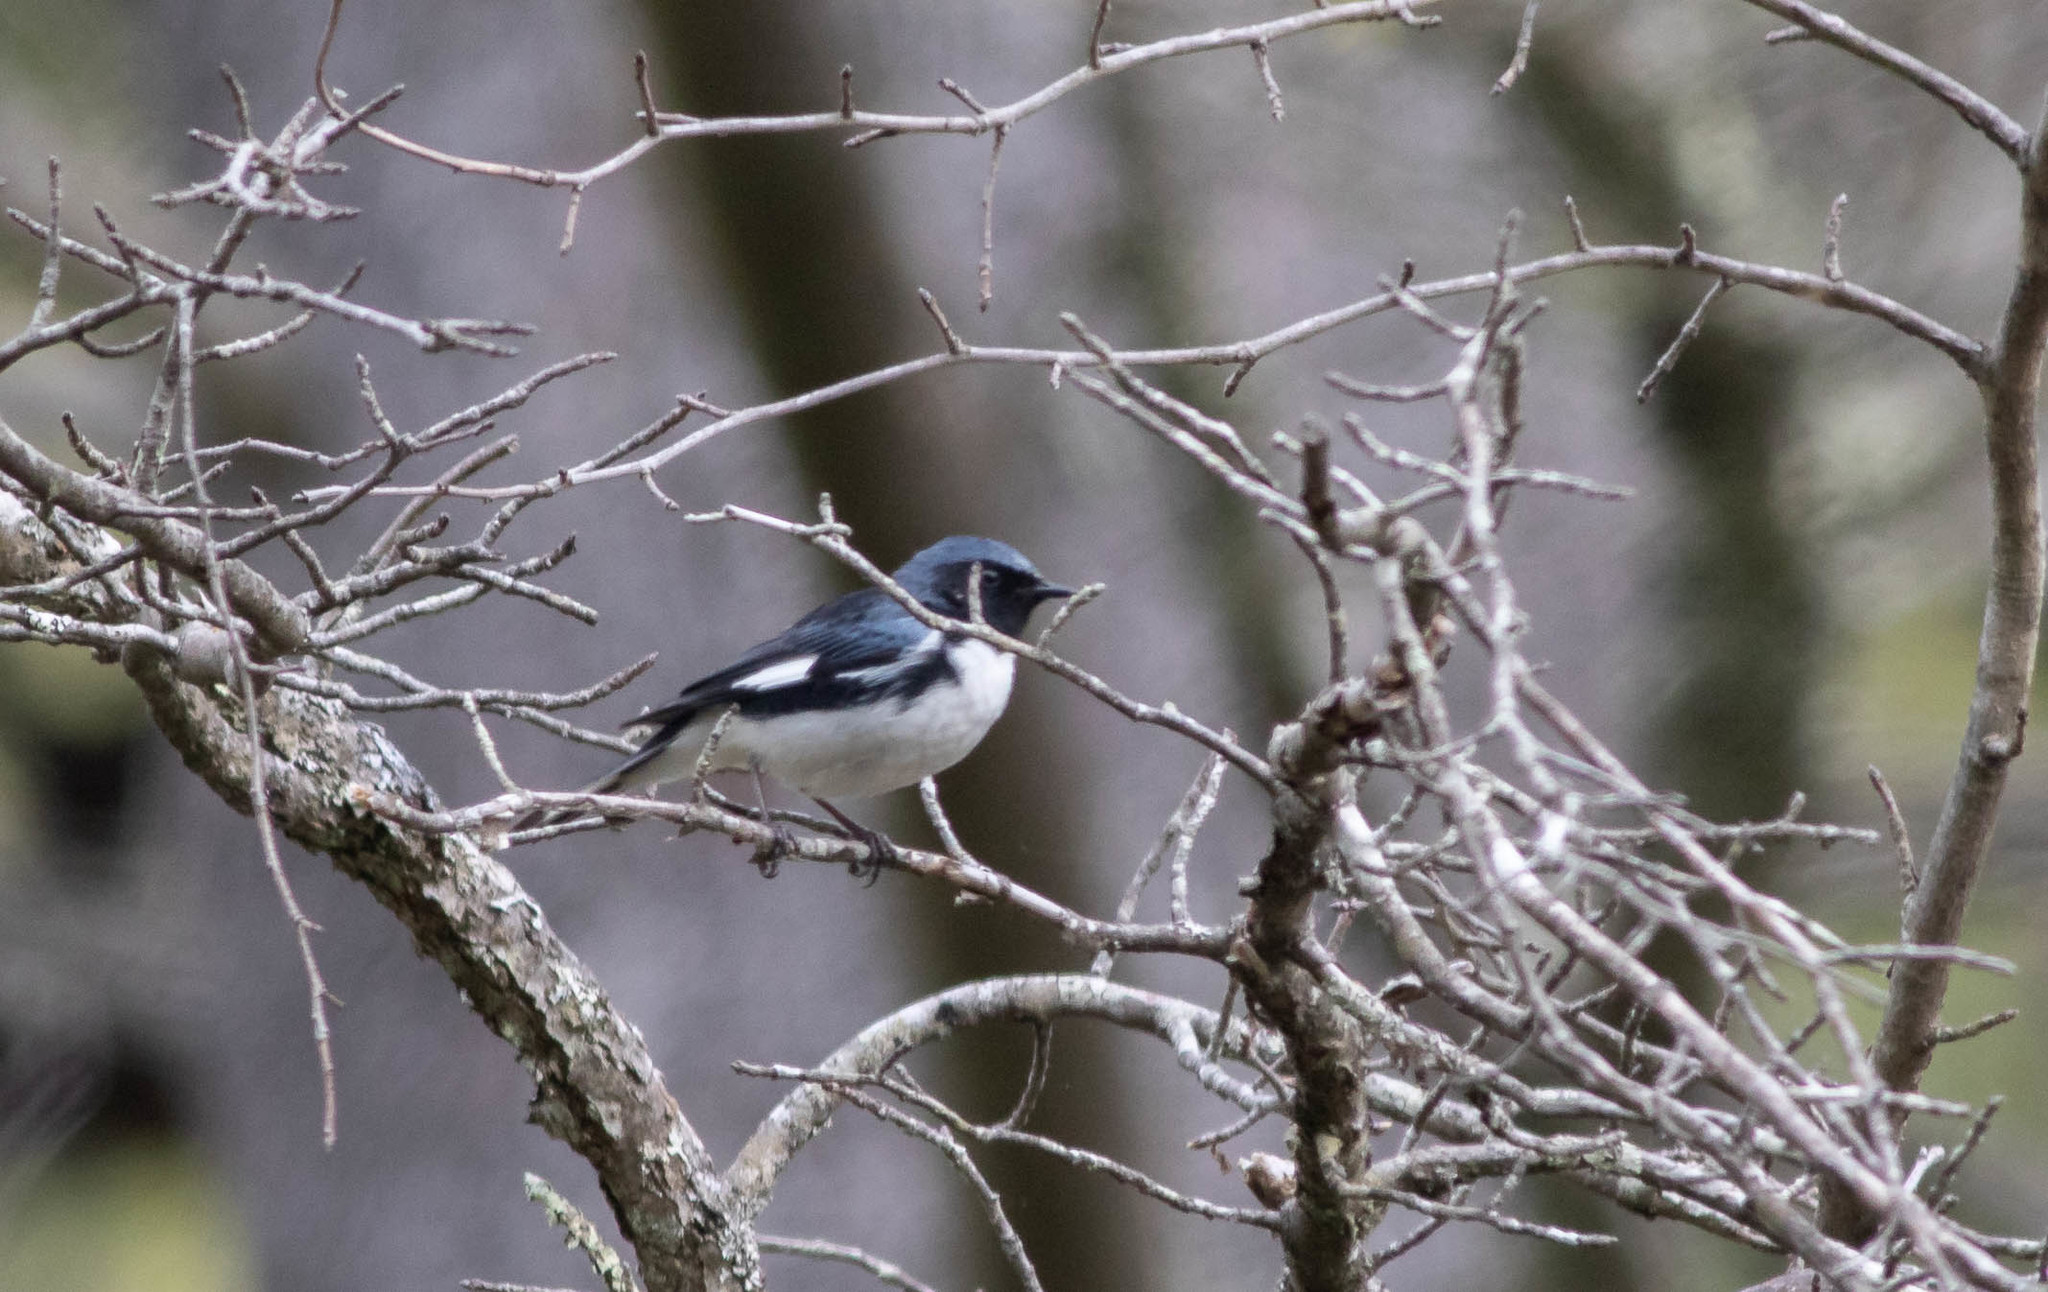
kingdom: Animalia
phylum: Chordata
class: Aves
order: Passeriformes
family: Parulidae
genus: Setophaga
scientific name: Setophaga caerulescens
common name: Black-throated blue warbler
